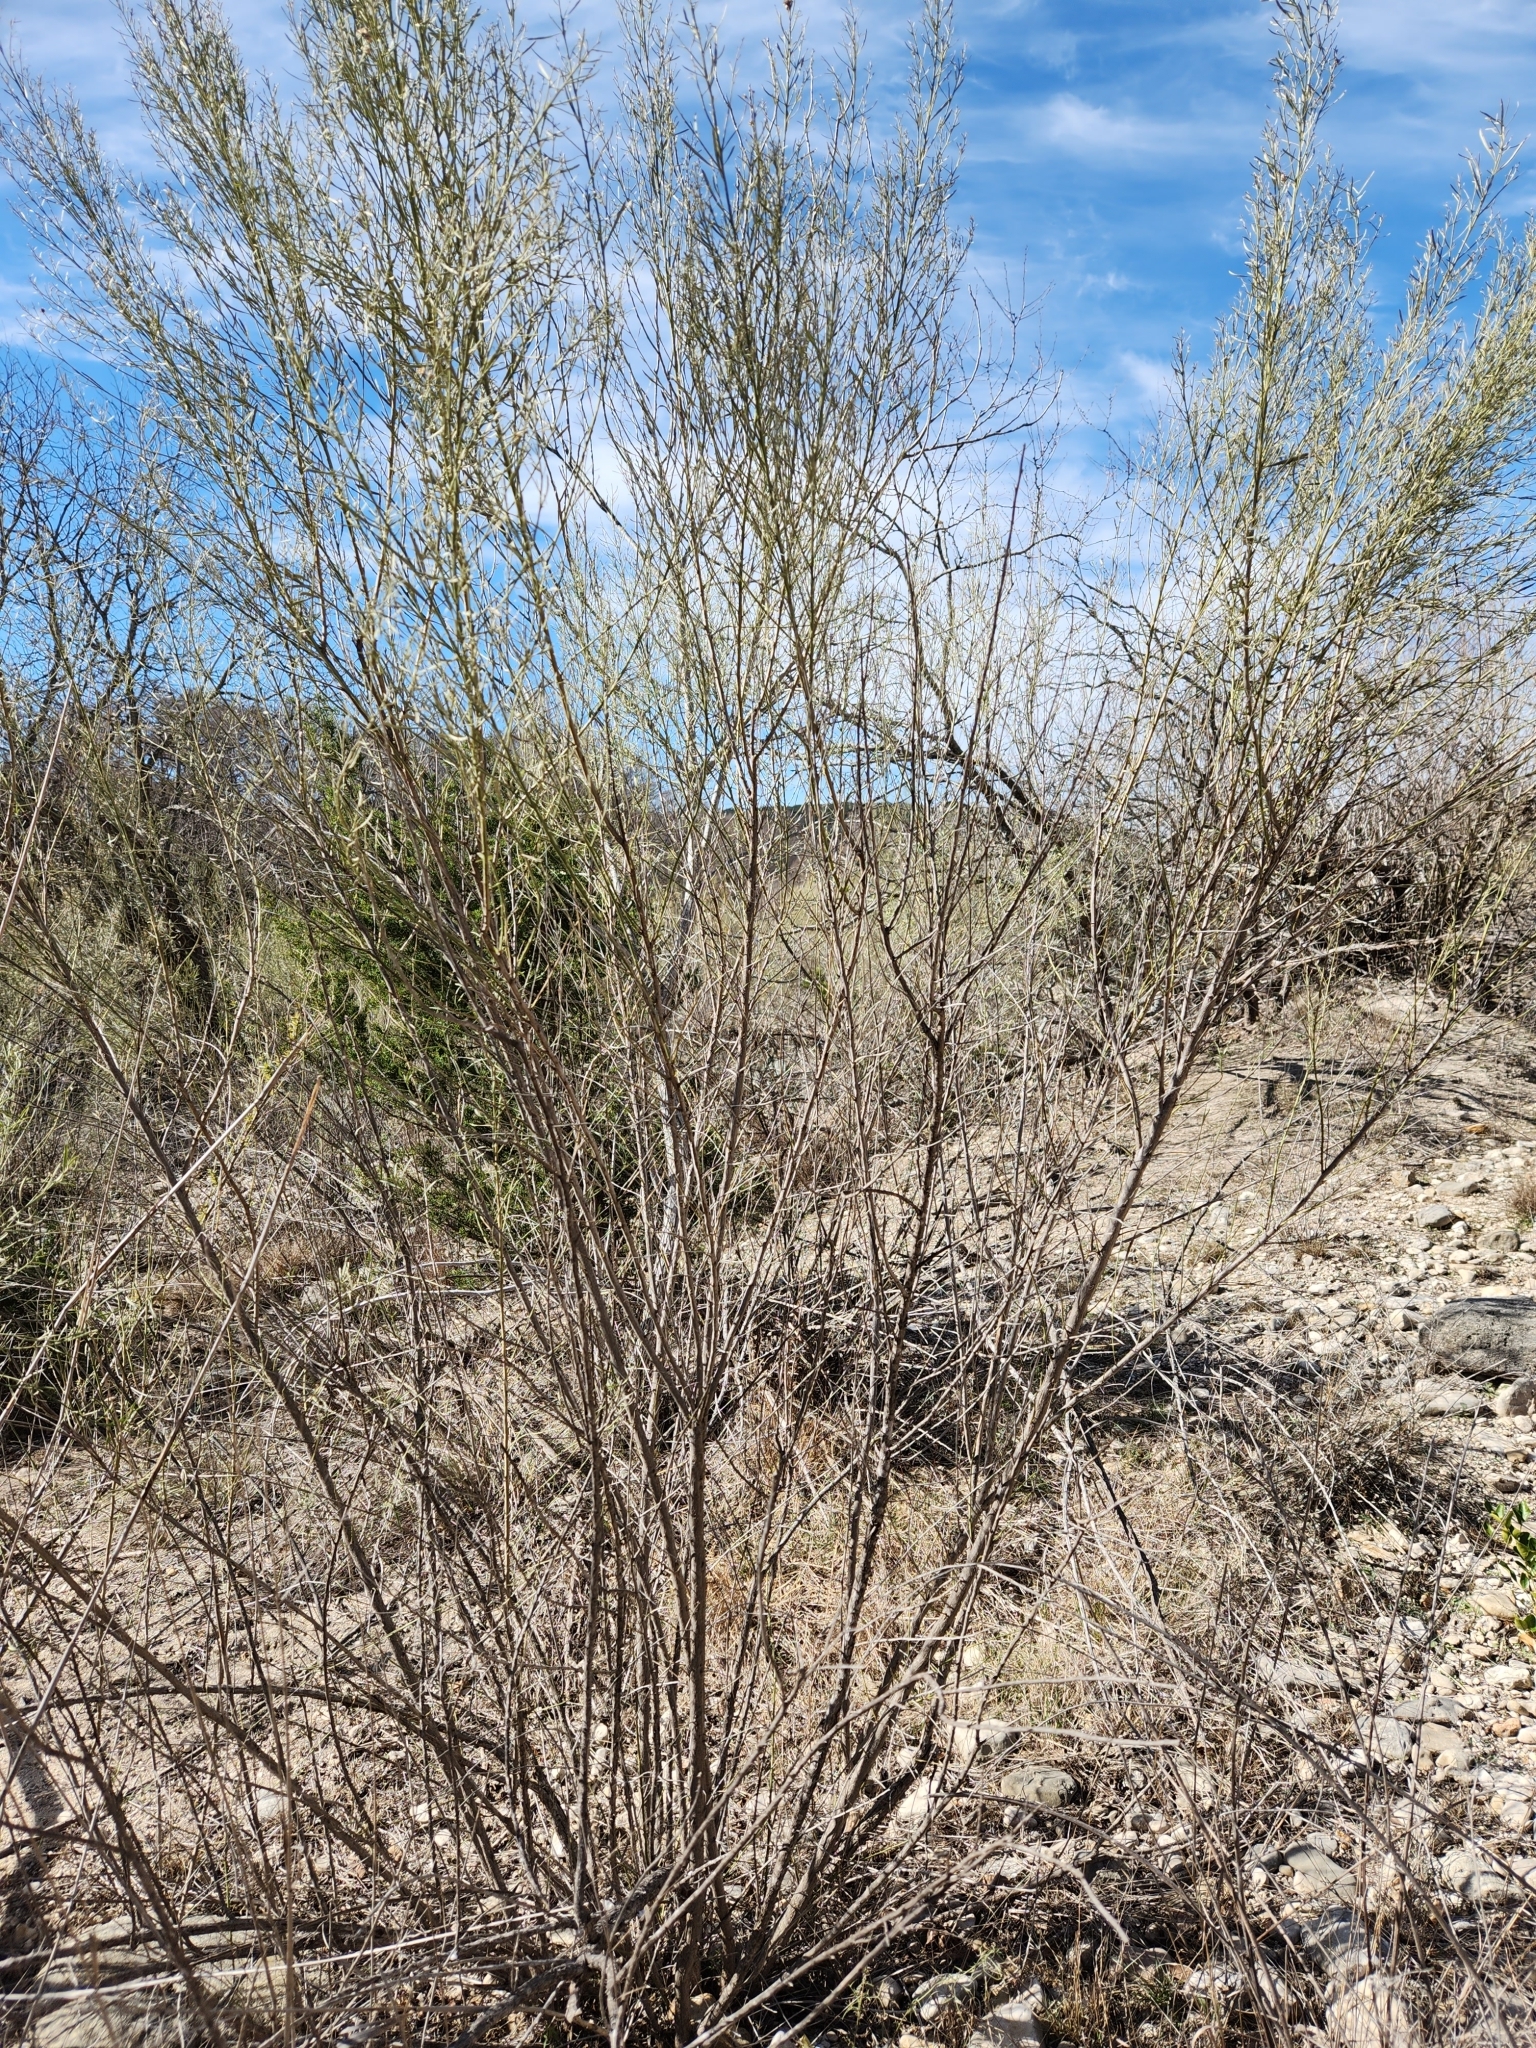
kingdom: Plantae
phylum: Tracheophyta
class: Magnoliopsida
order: Asterales
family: Asteraceae
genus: Baccharis
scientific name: Baccharis neglecta
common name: Roosevelt-weed
